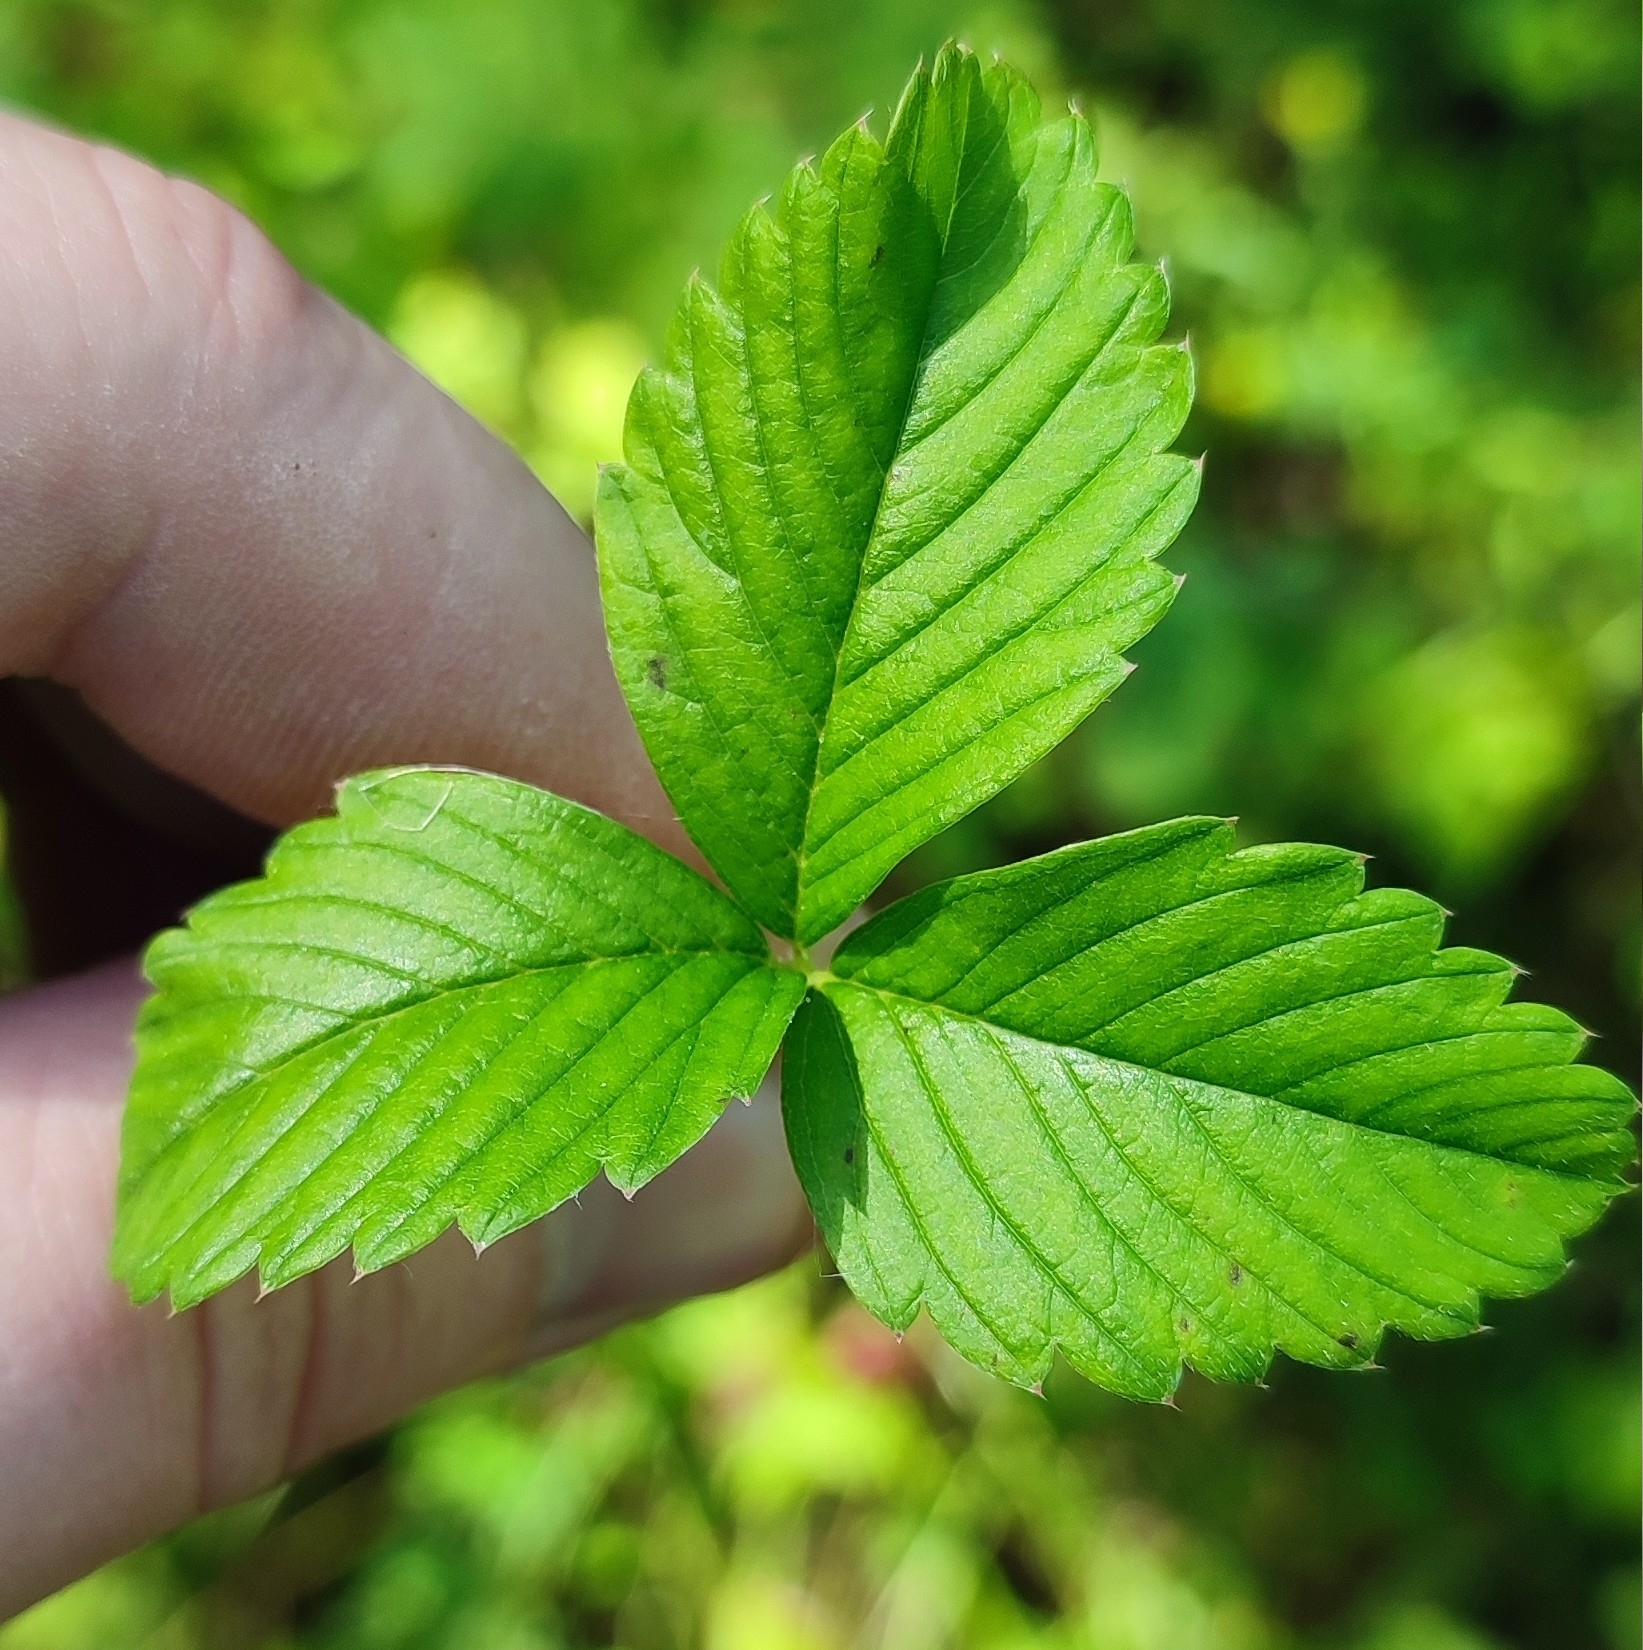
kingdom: Plantae
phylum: Tracheophyta
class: Magnoliopsida
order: Rosales
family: Rosaceae
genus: Fragaria
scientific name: Fragaria viridis
